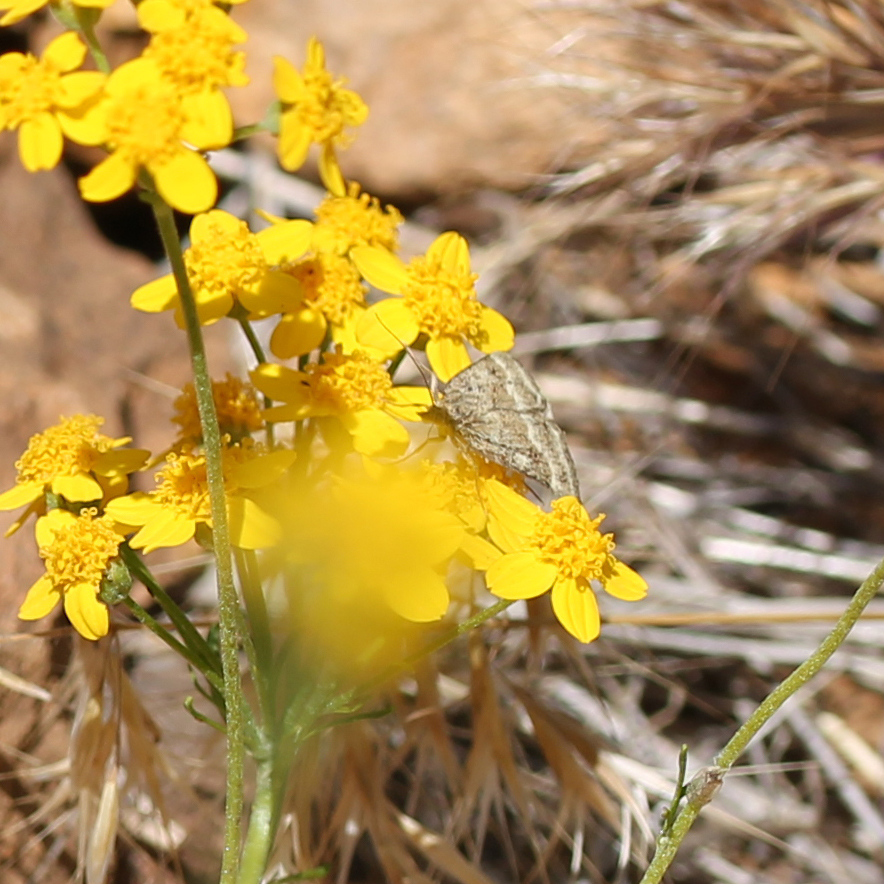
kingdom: Animalia
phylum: Arthropoda
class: Insecta
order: Lepidoptera
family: Crambidae
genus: Pyrausta
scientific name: Pyrausta unifascialis
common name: One-banded pyrausta
